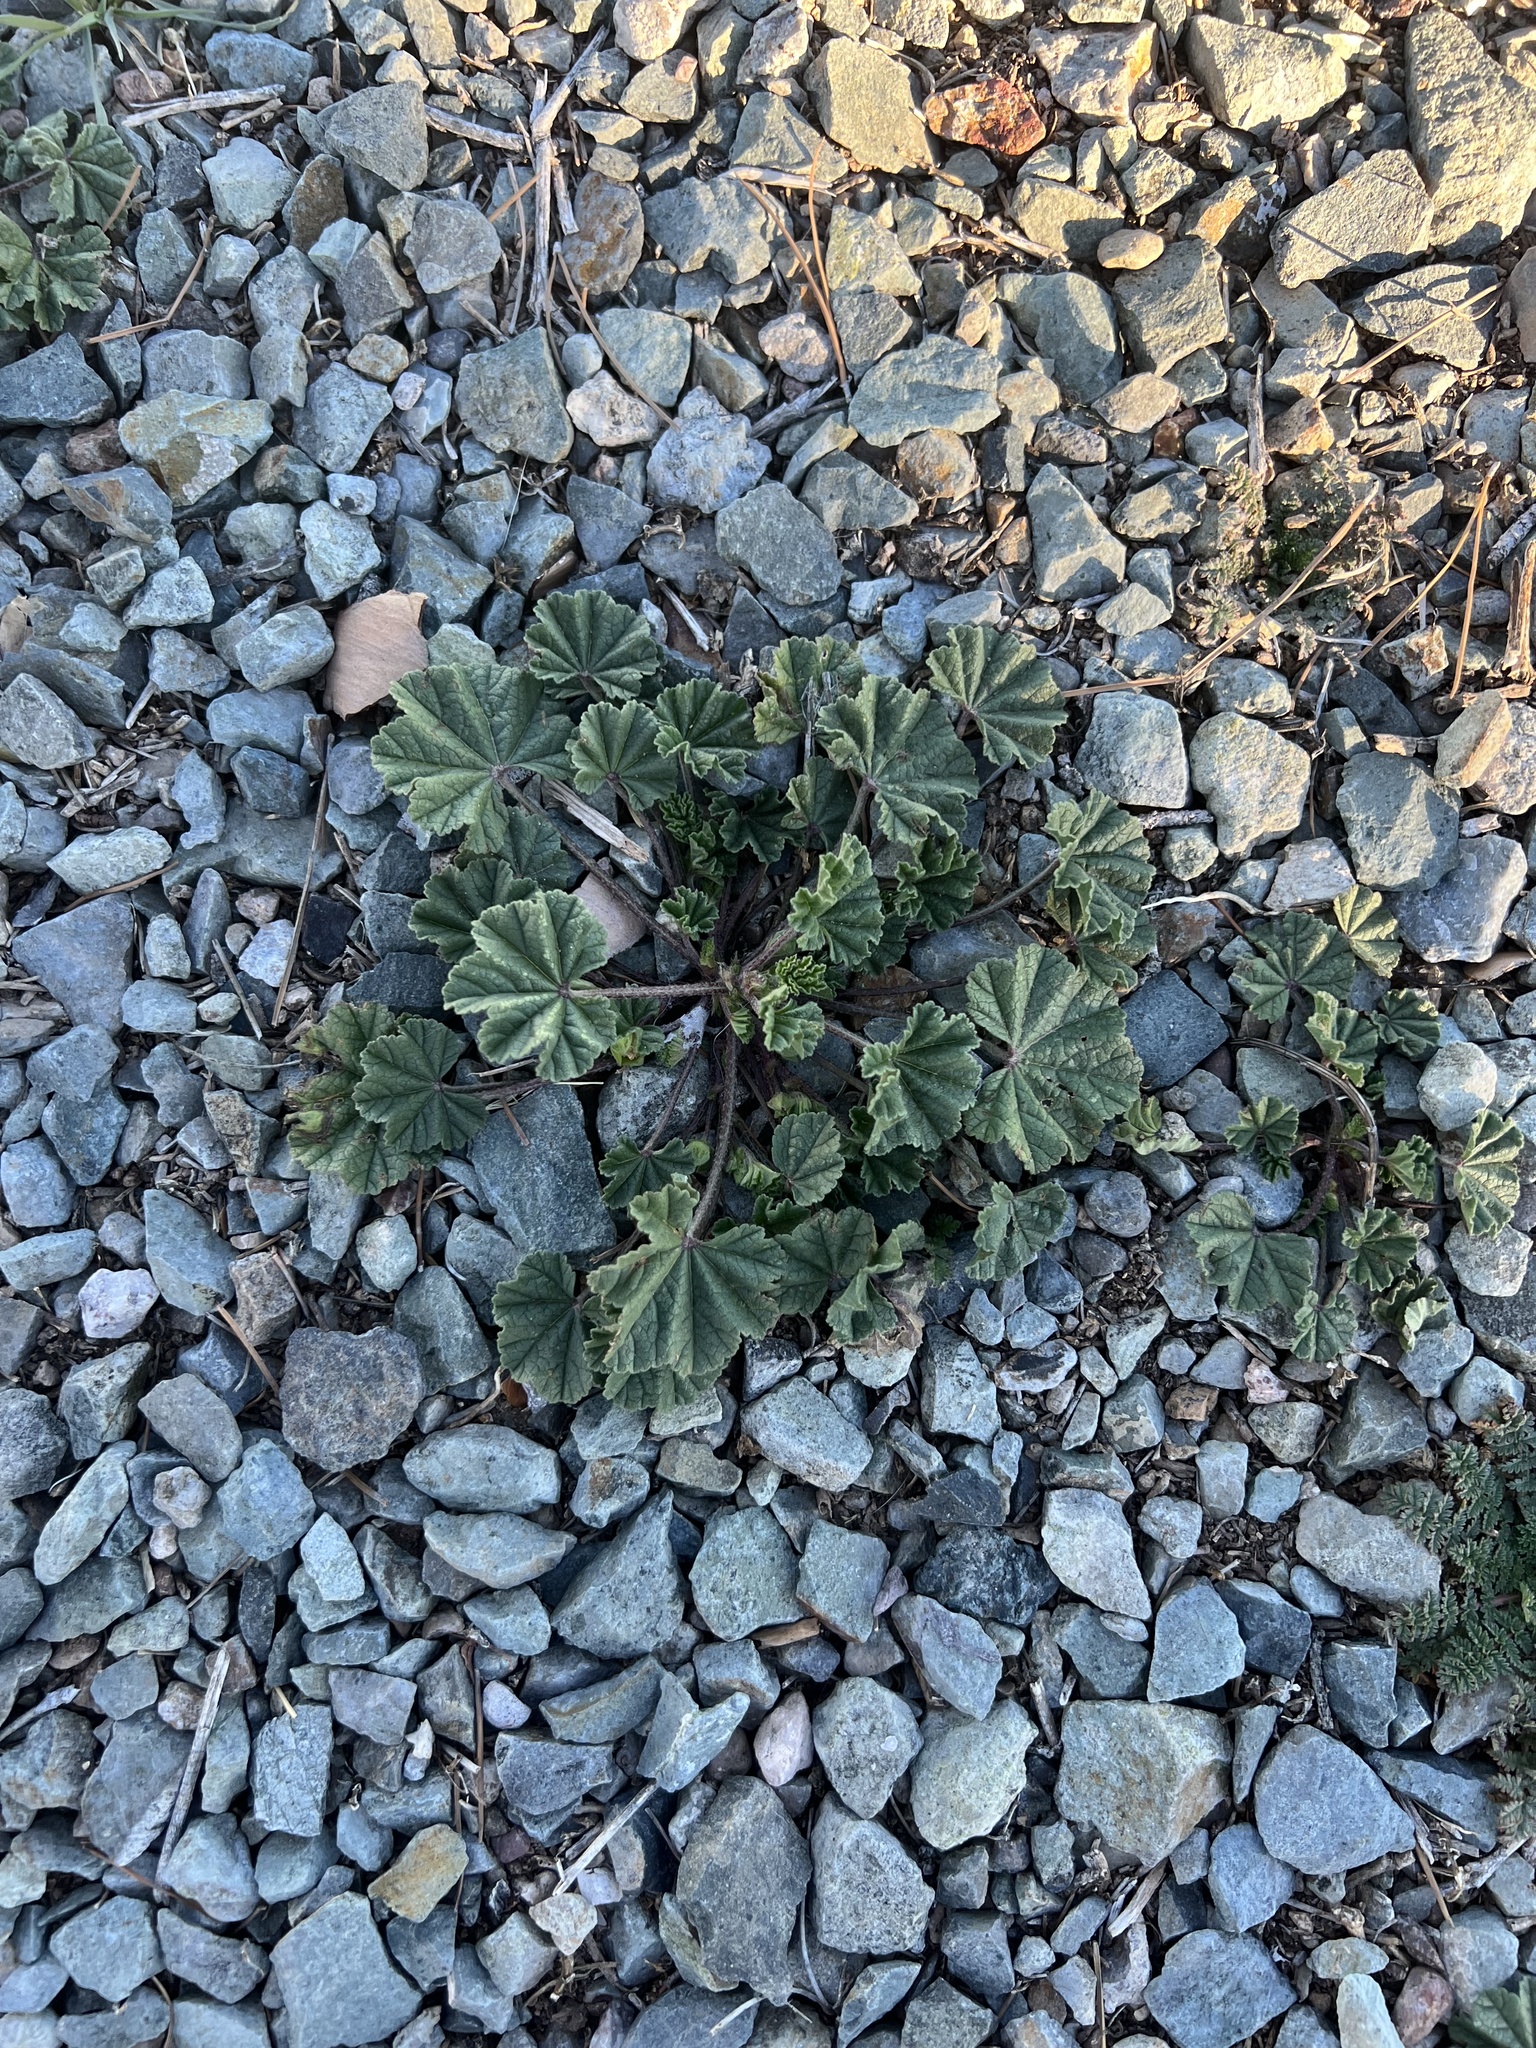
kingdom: Plantae
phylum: Tracheophyta
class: Magnoliopsida
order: Malvales
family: Malvaceae
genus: Malva
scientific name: Malva parviflora
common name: Least mallow
